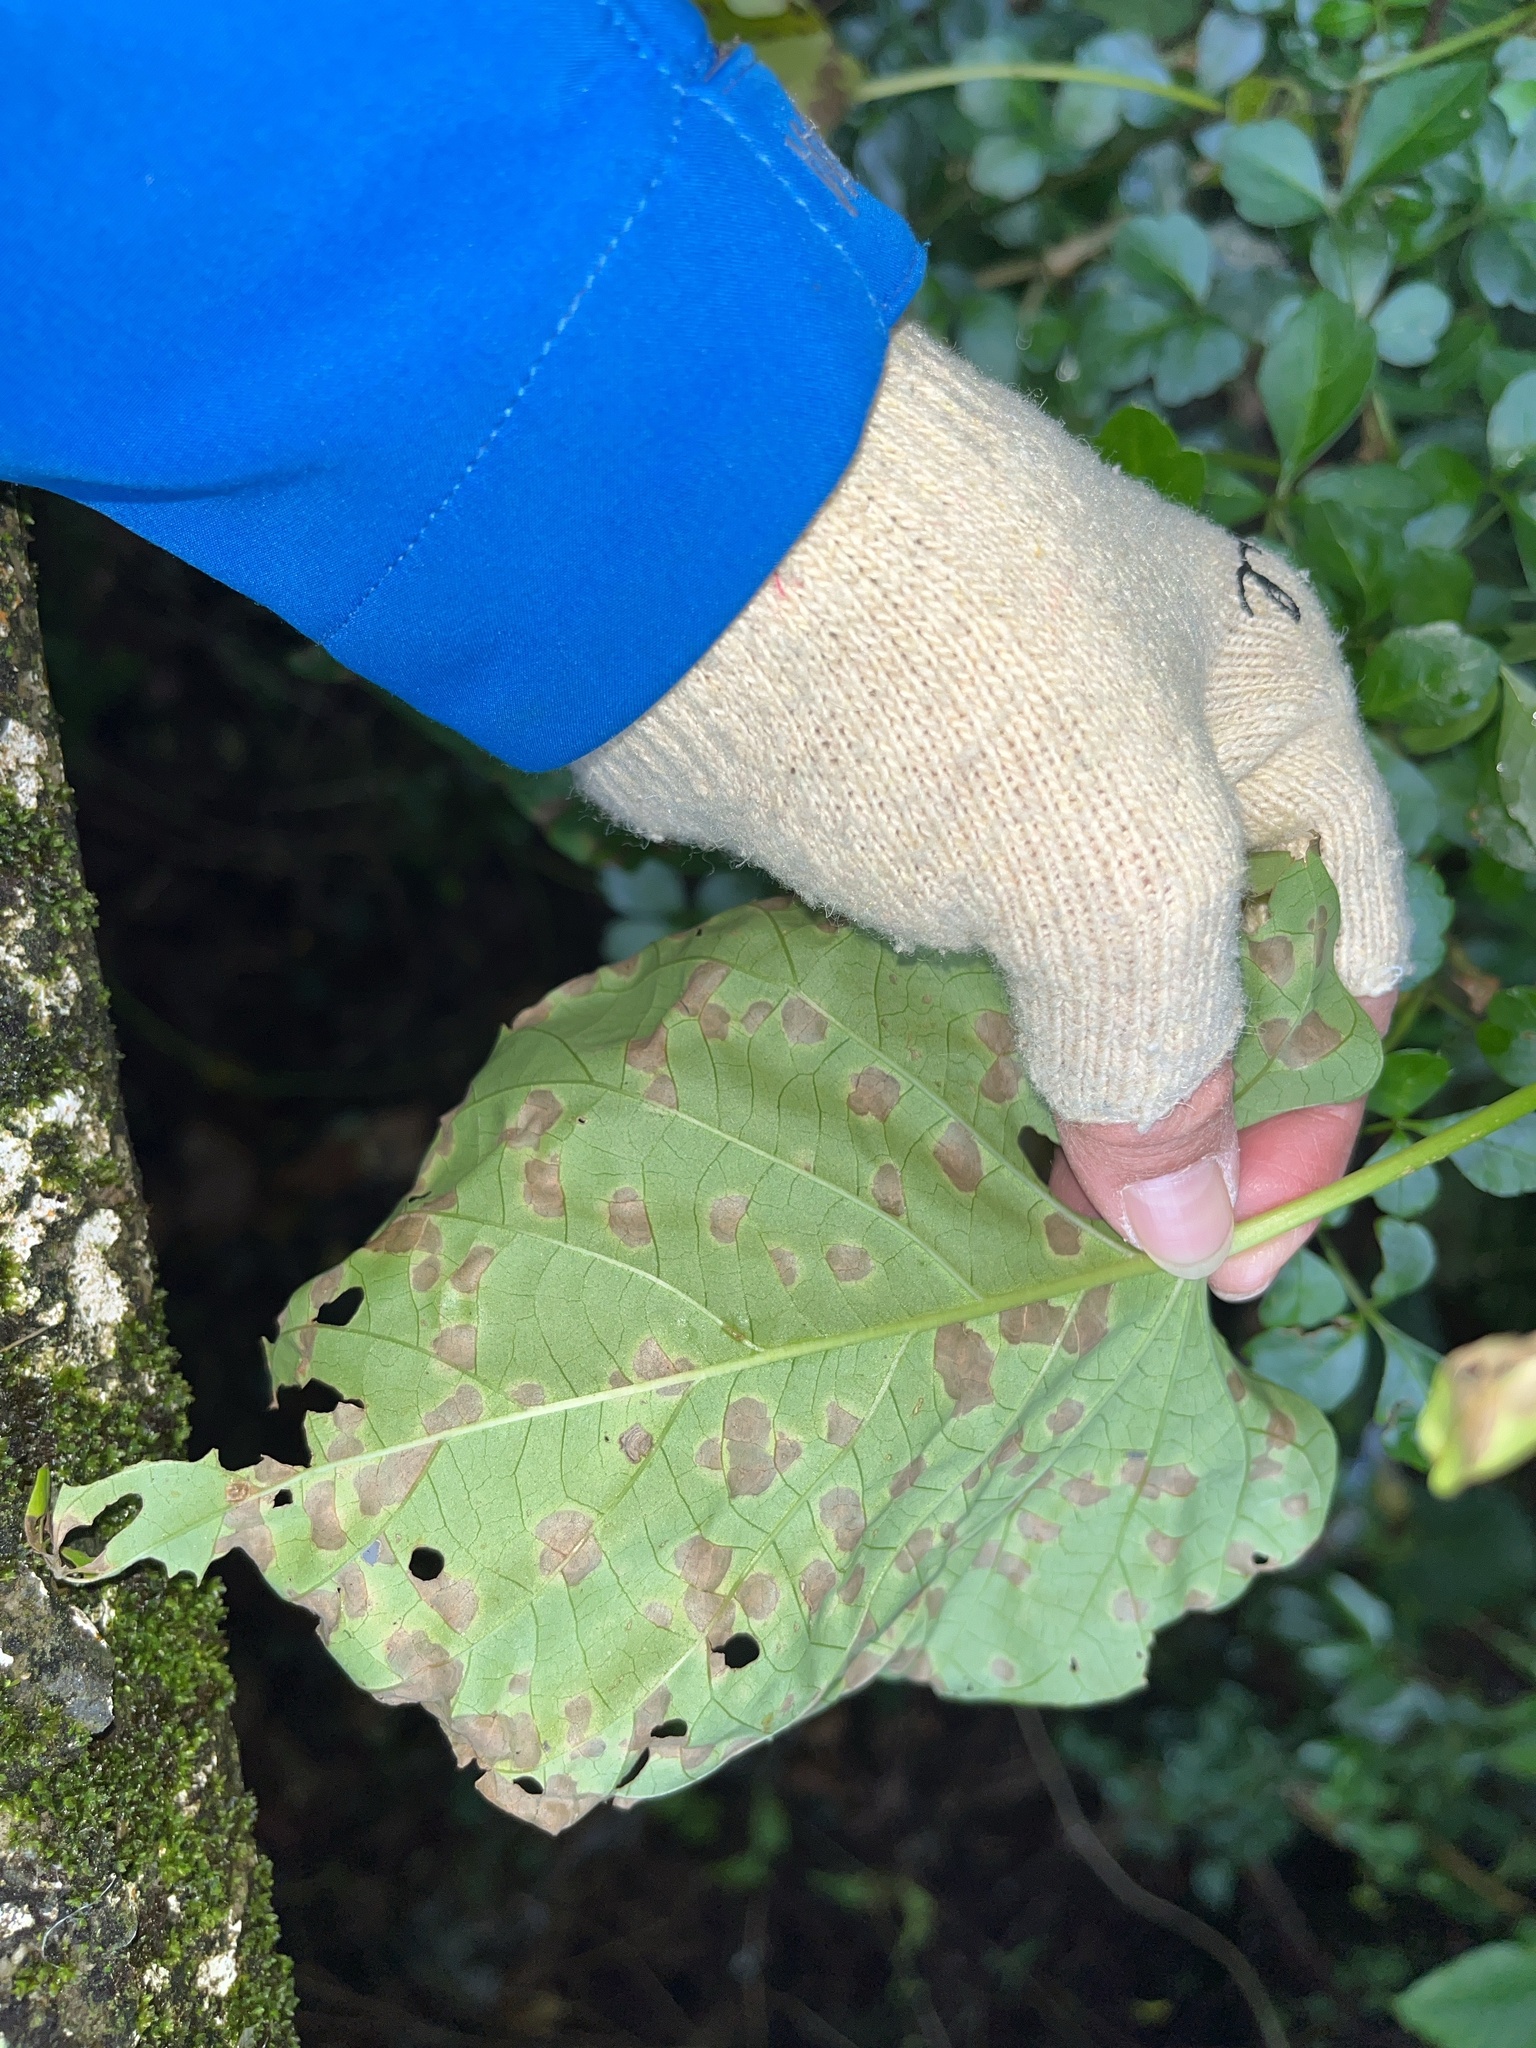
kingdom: Plantae
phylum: Tracheophyta
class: Magnoliopsida
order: Solanales
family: Convolvulaceae
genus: Stictocardia
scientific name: Stictocardia tiliifolia
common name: Spottedheart
